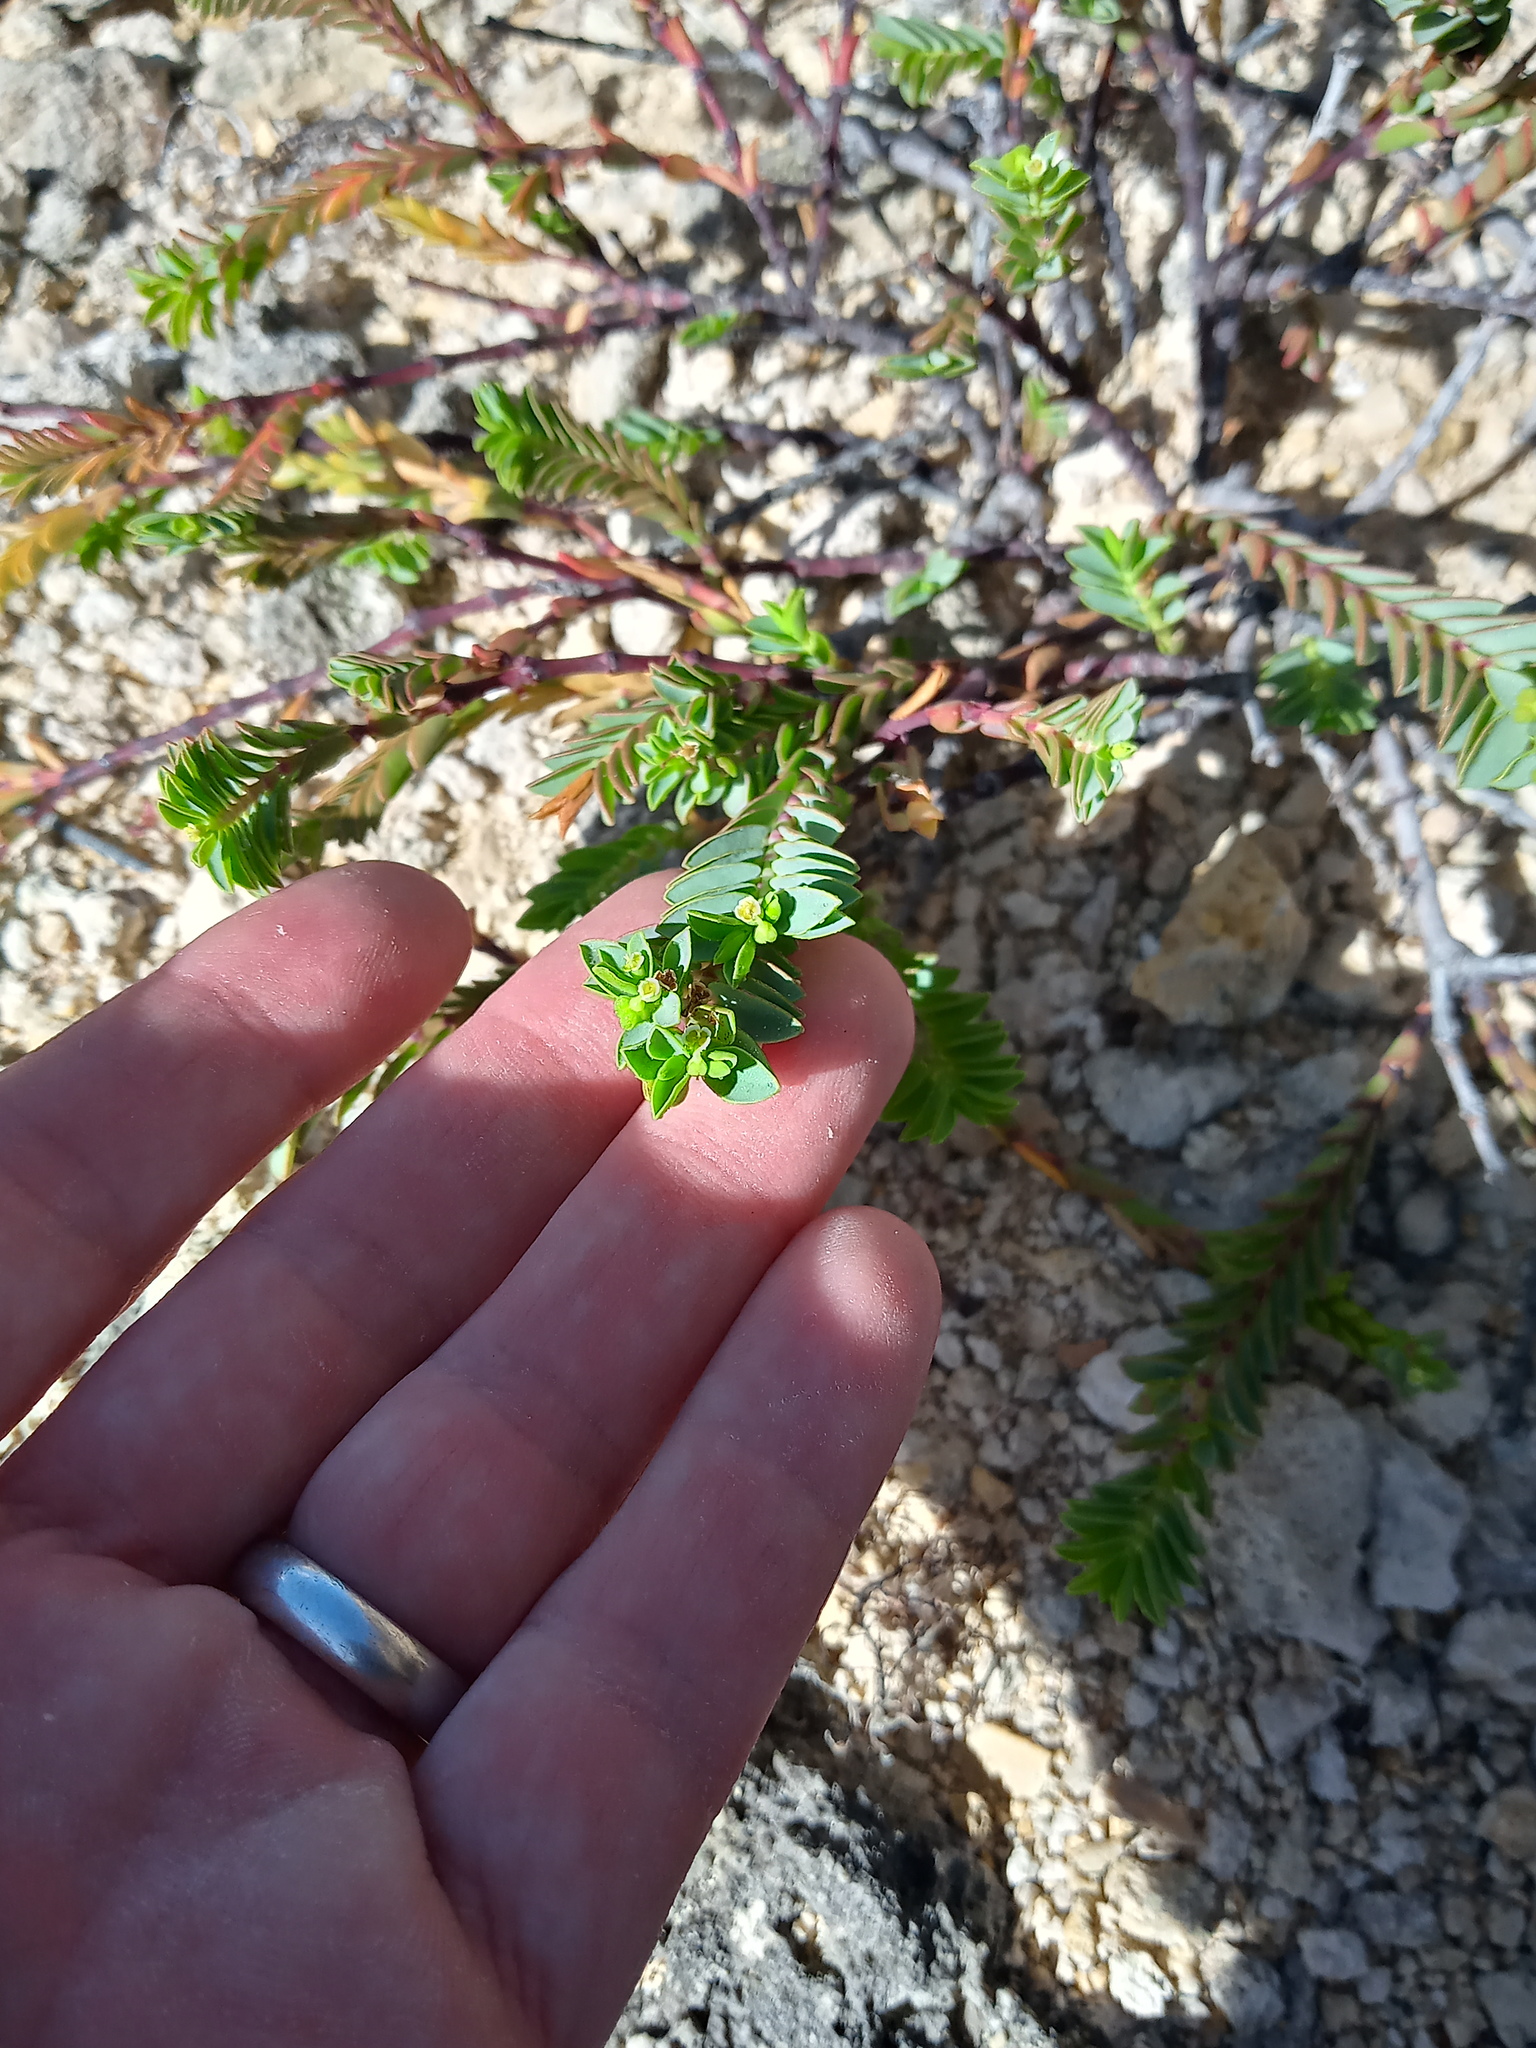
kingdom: Plantae
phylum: Tracheophyta
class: Magnoliopsida
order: Malpighiales
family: Euphorbiaceae
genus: Euphorbia
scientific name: Euphorbia mesembryanthemifolia
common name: Coastal beach sandmat
